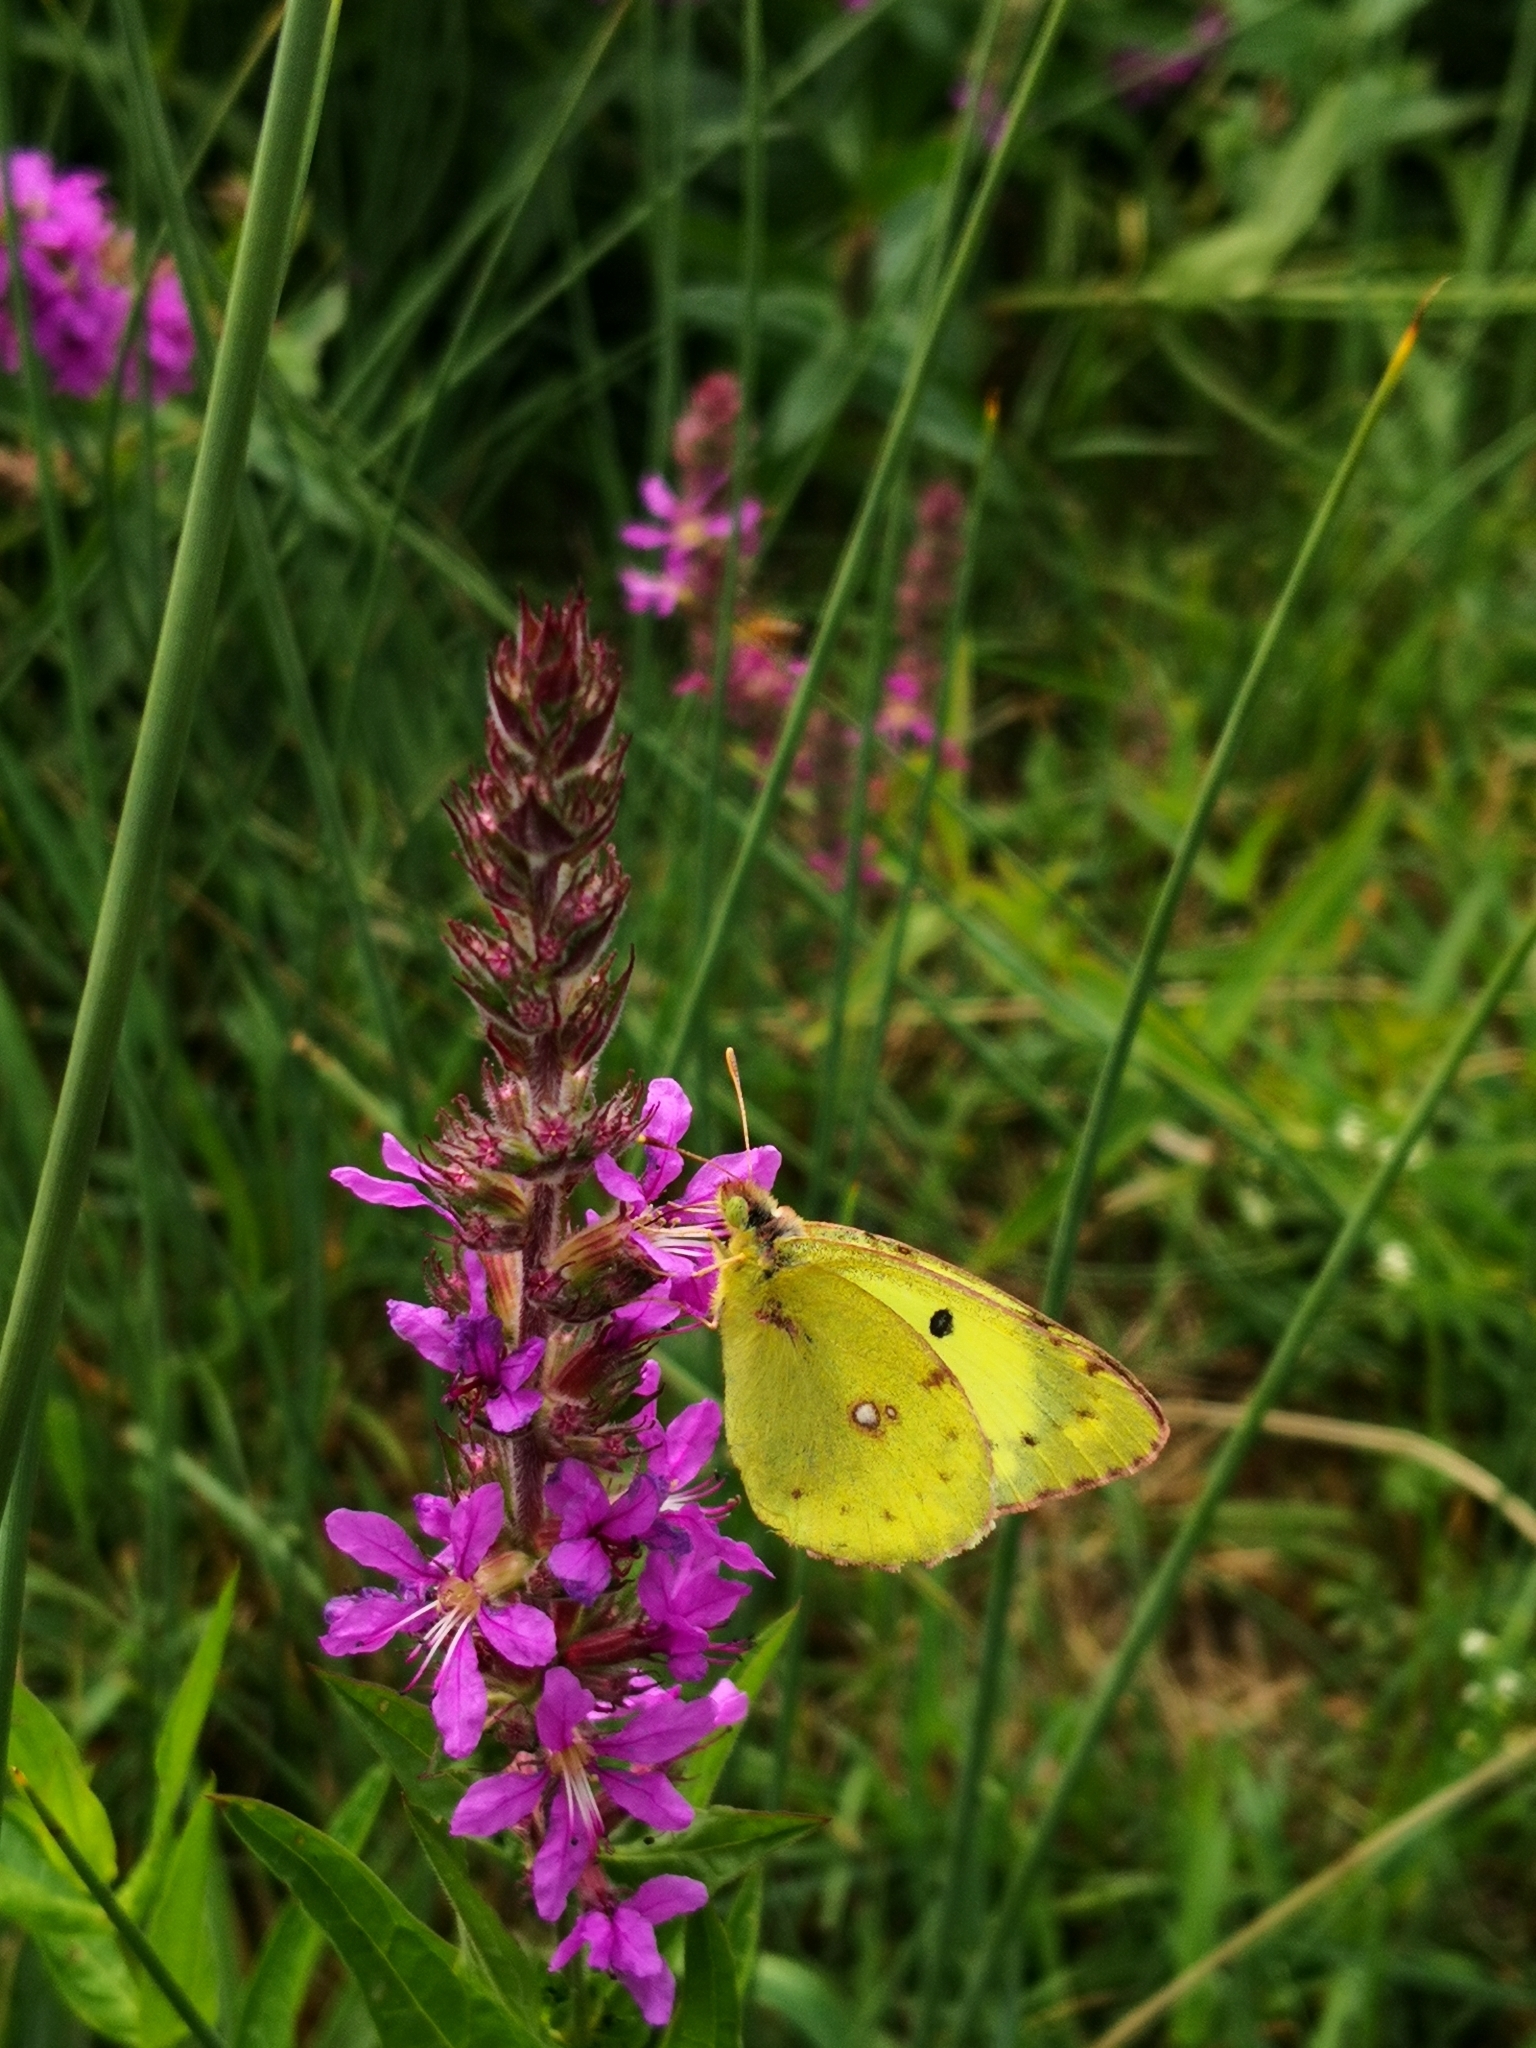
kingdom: Animalia
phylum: Arthropoda
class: Insecta
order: Lepidoptera
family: Pieridae
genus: Colias
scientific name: Colias hyale
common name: Pale clouded yellow
